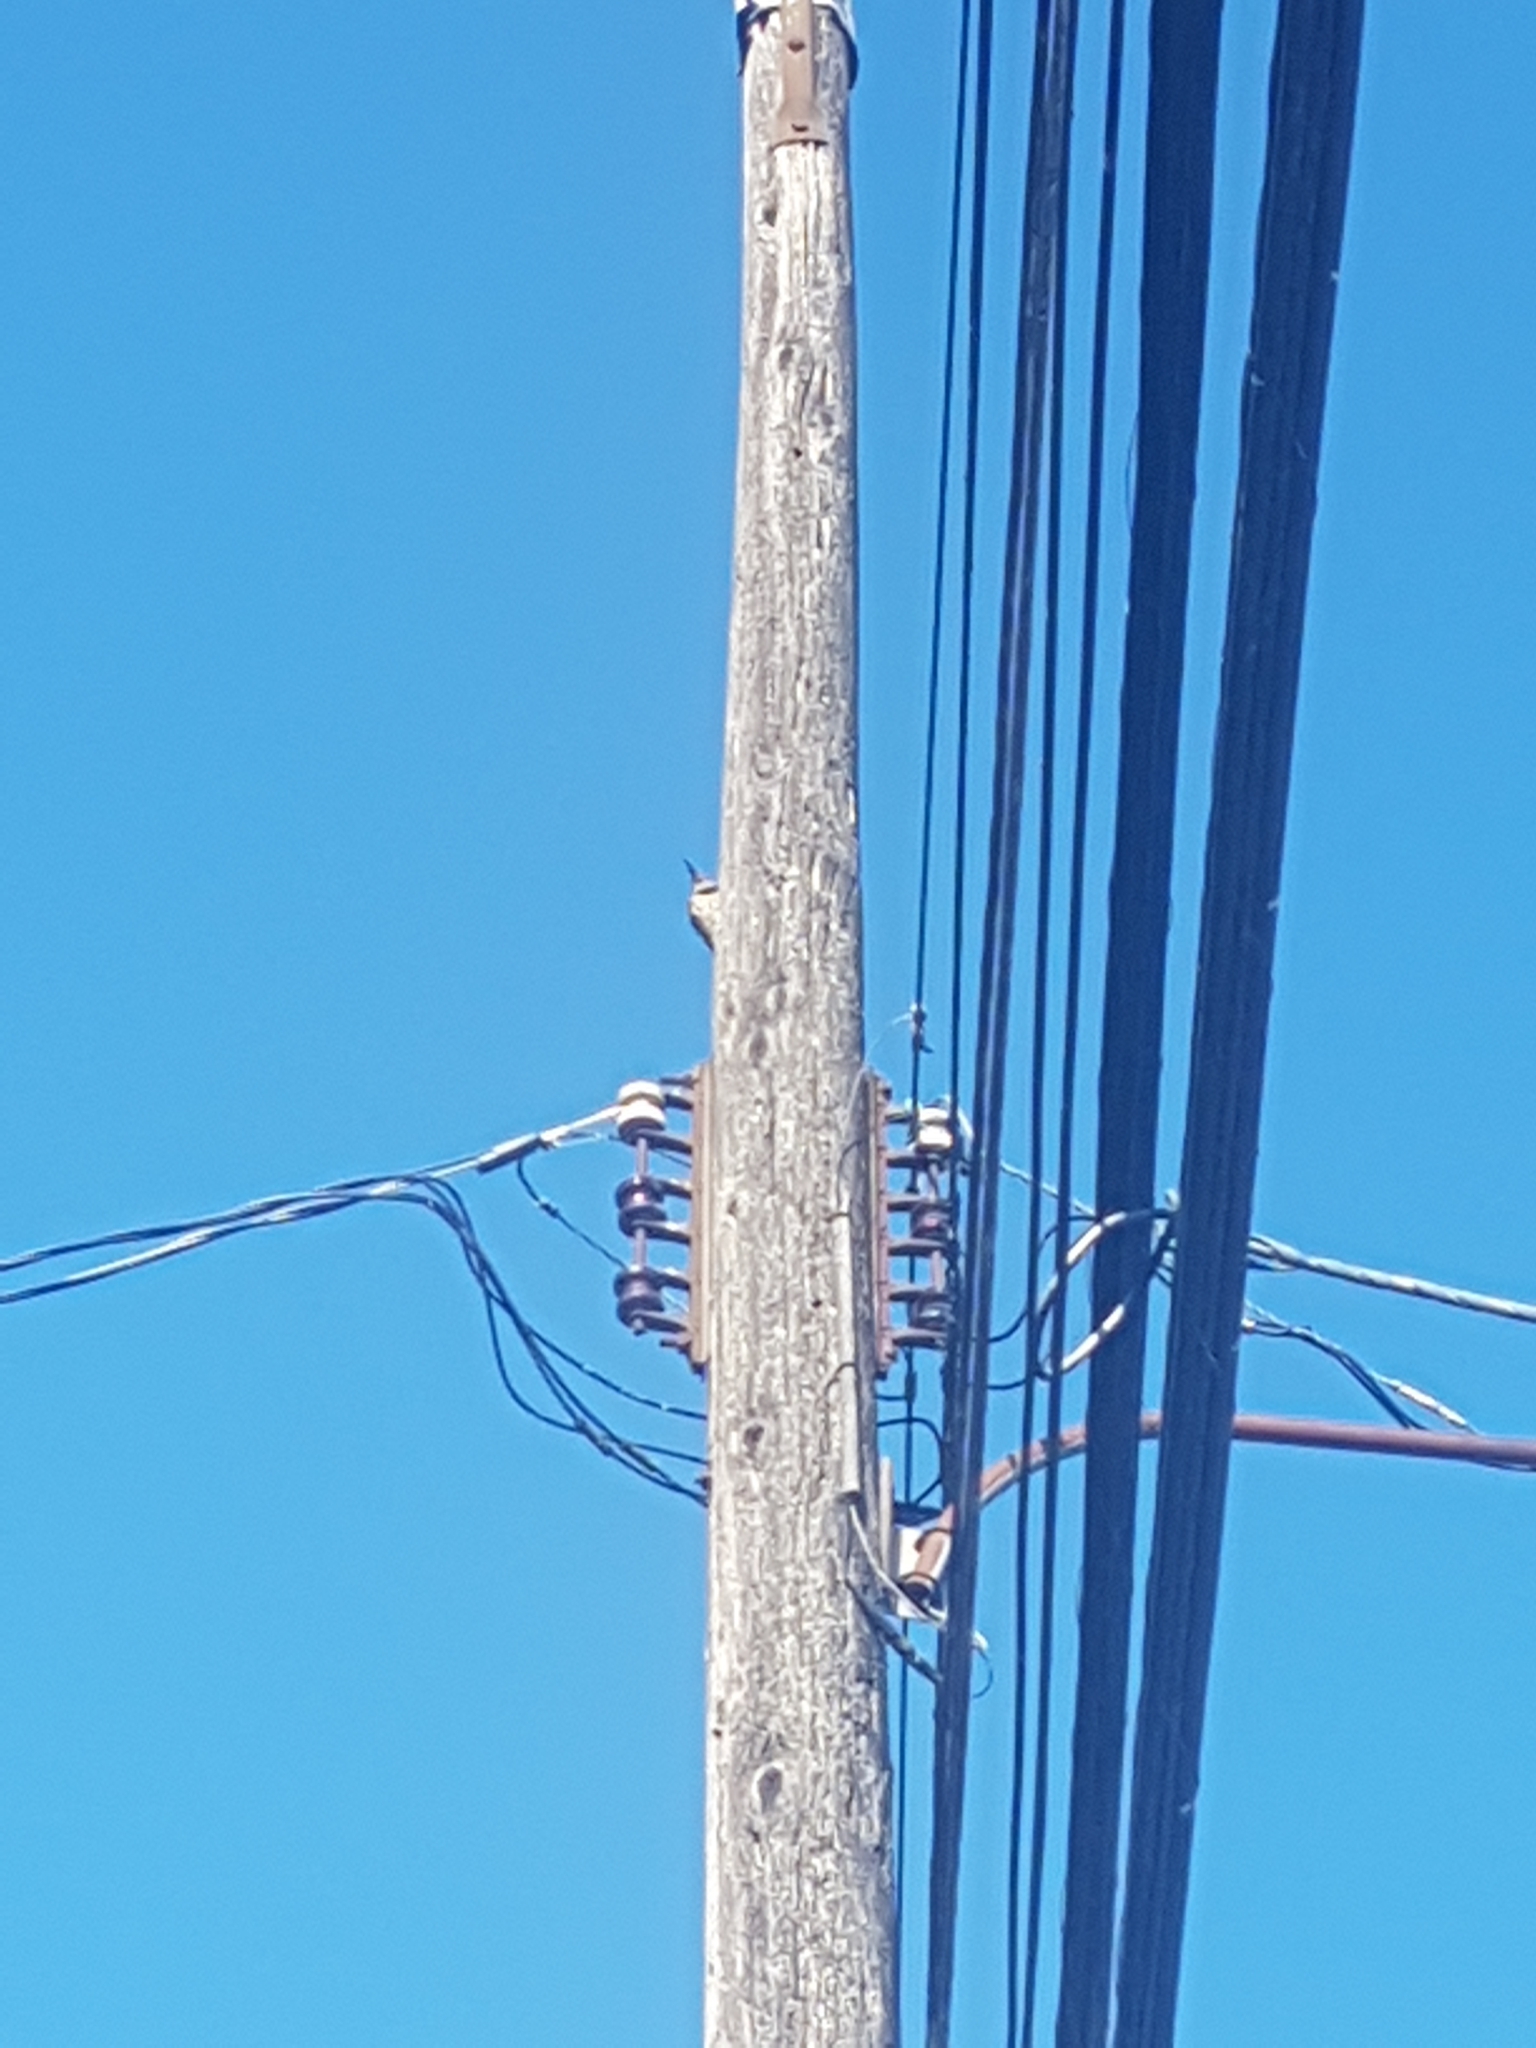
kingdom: Animalia
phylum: Chordata
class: Aves
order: Piciformes
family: Picidae
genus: Colaptes
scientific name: Colaptes auratus
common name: Northern flicker
